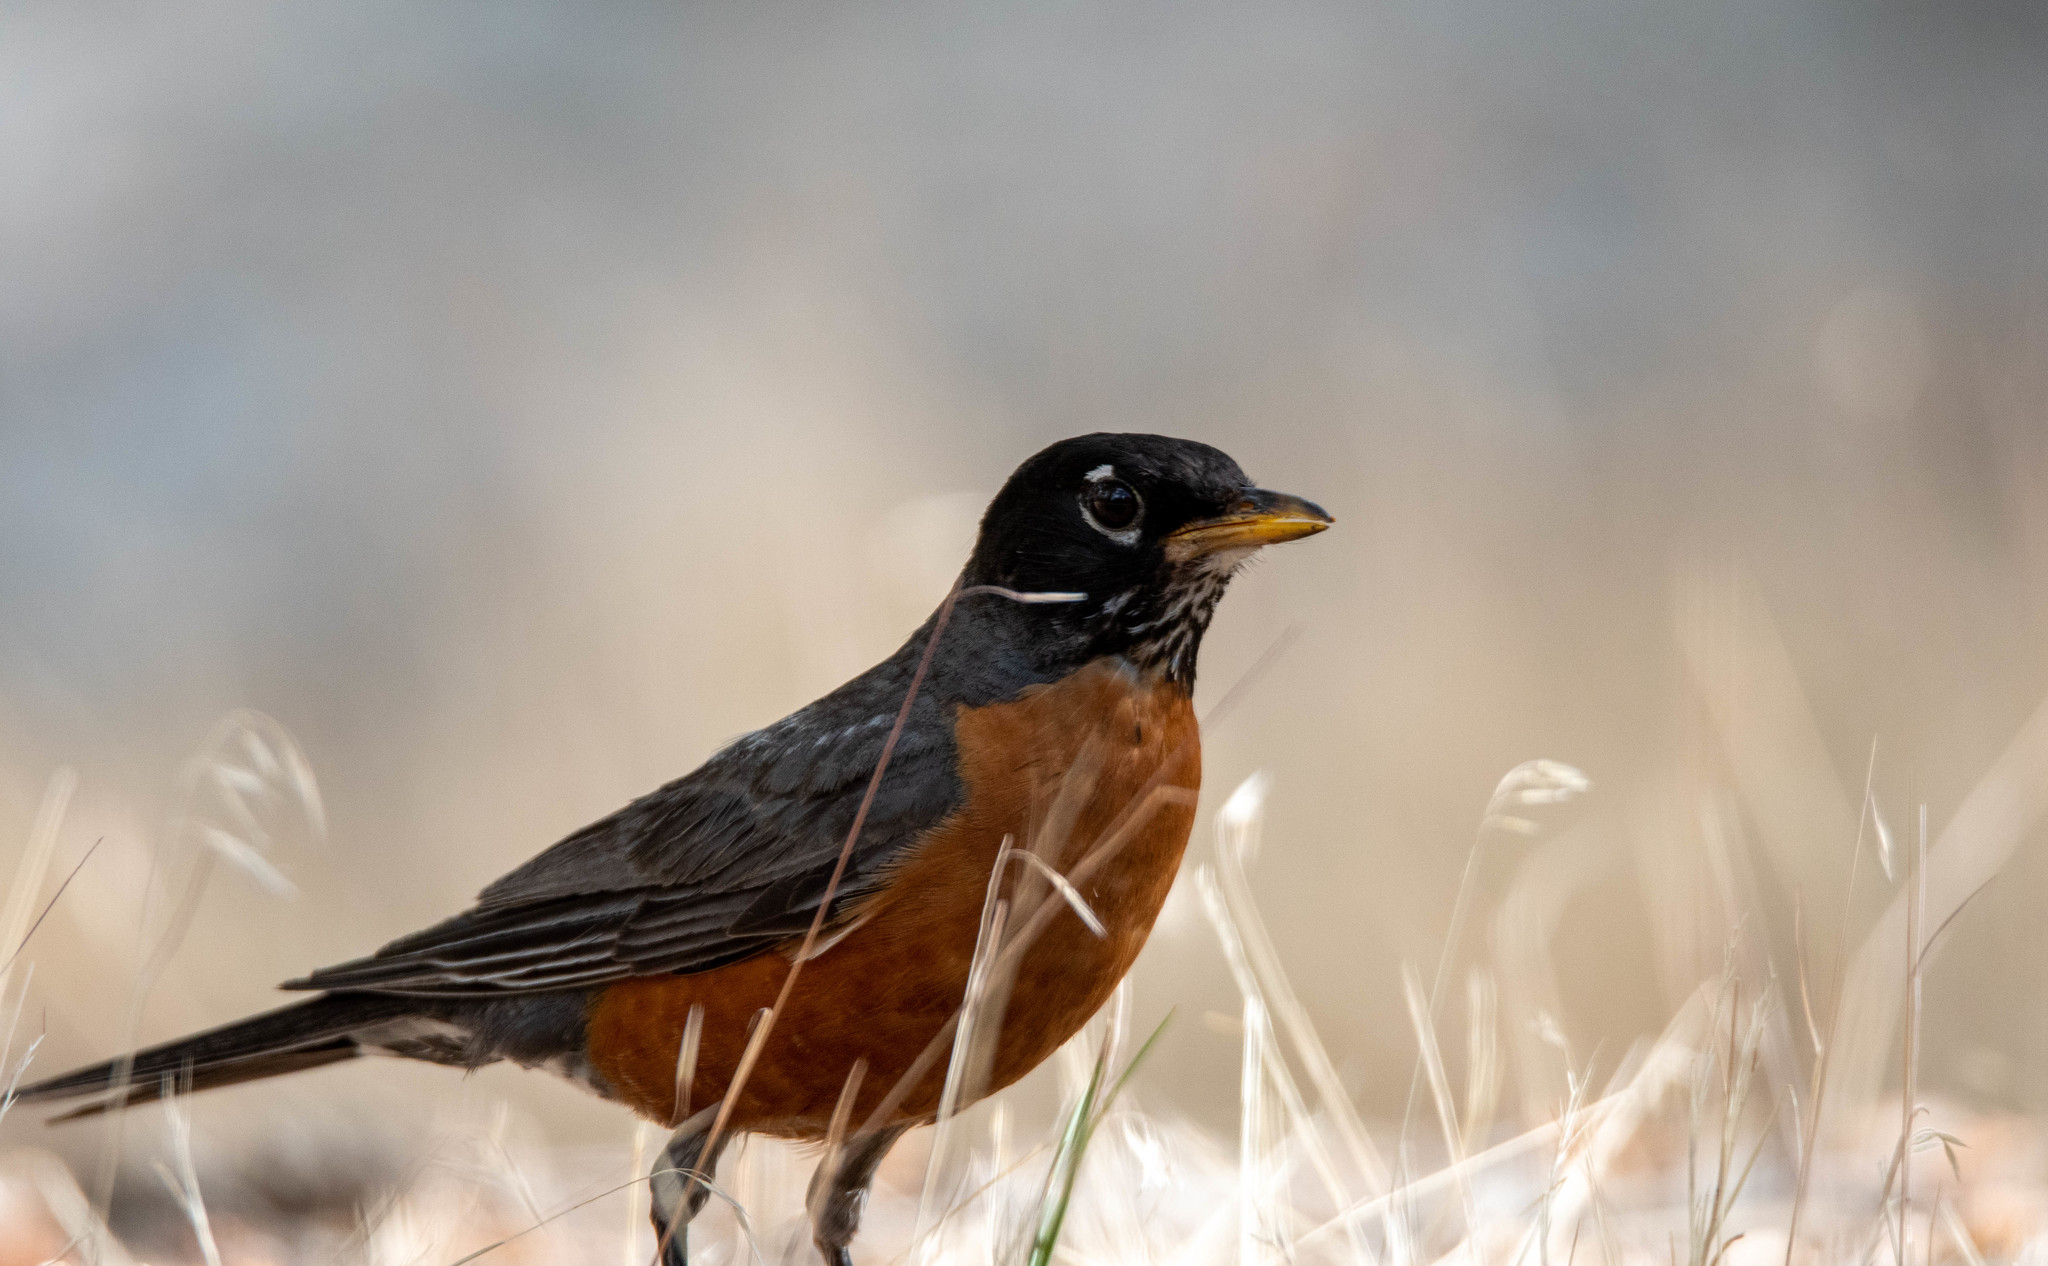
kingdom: Animalia
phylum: Chordata
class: Aves
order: Passeriformes
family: Turdidae
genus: Turdus
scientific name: Turdus migratorius
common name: American robin
